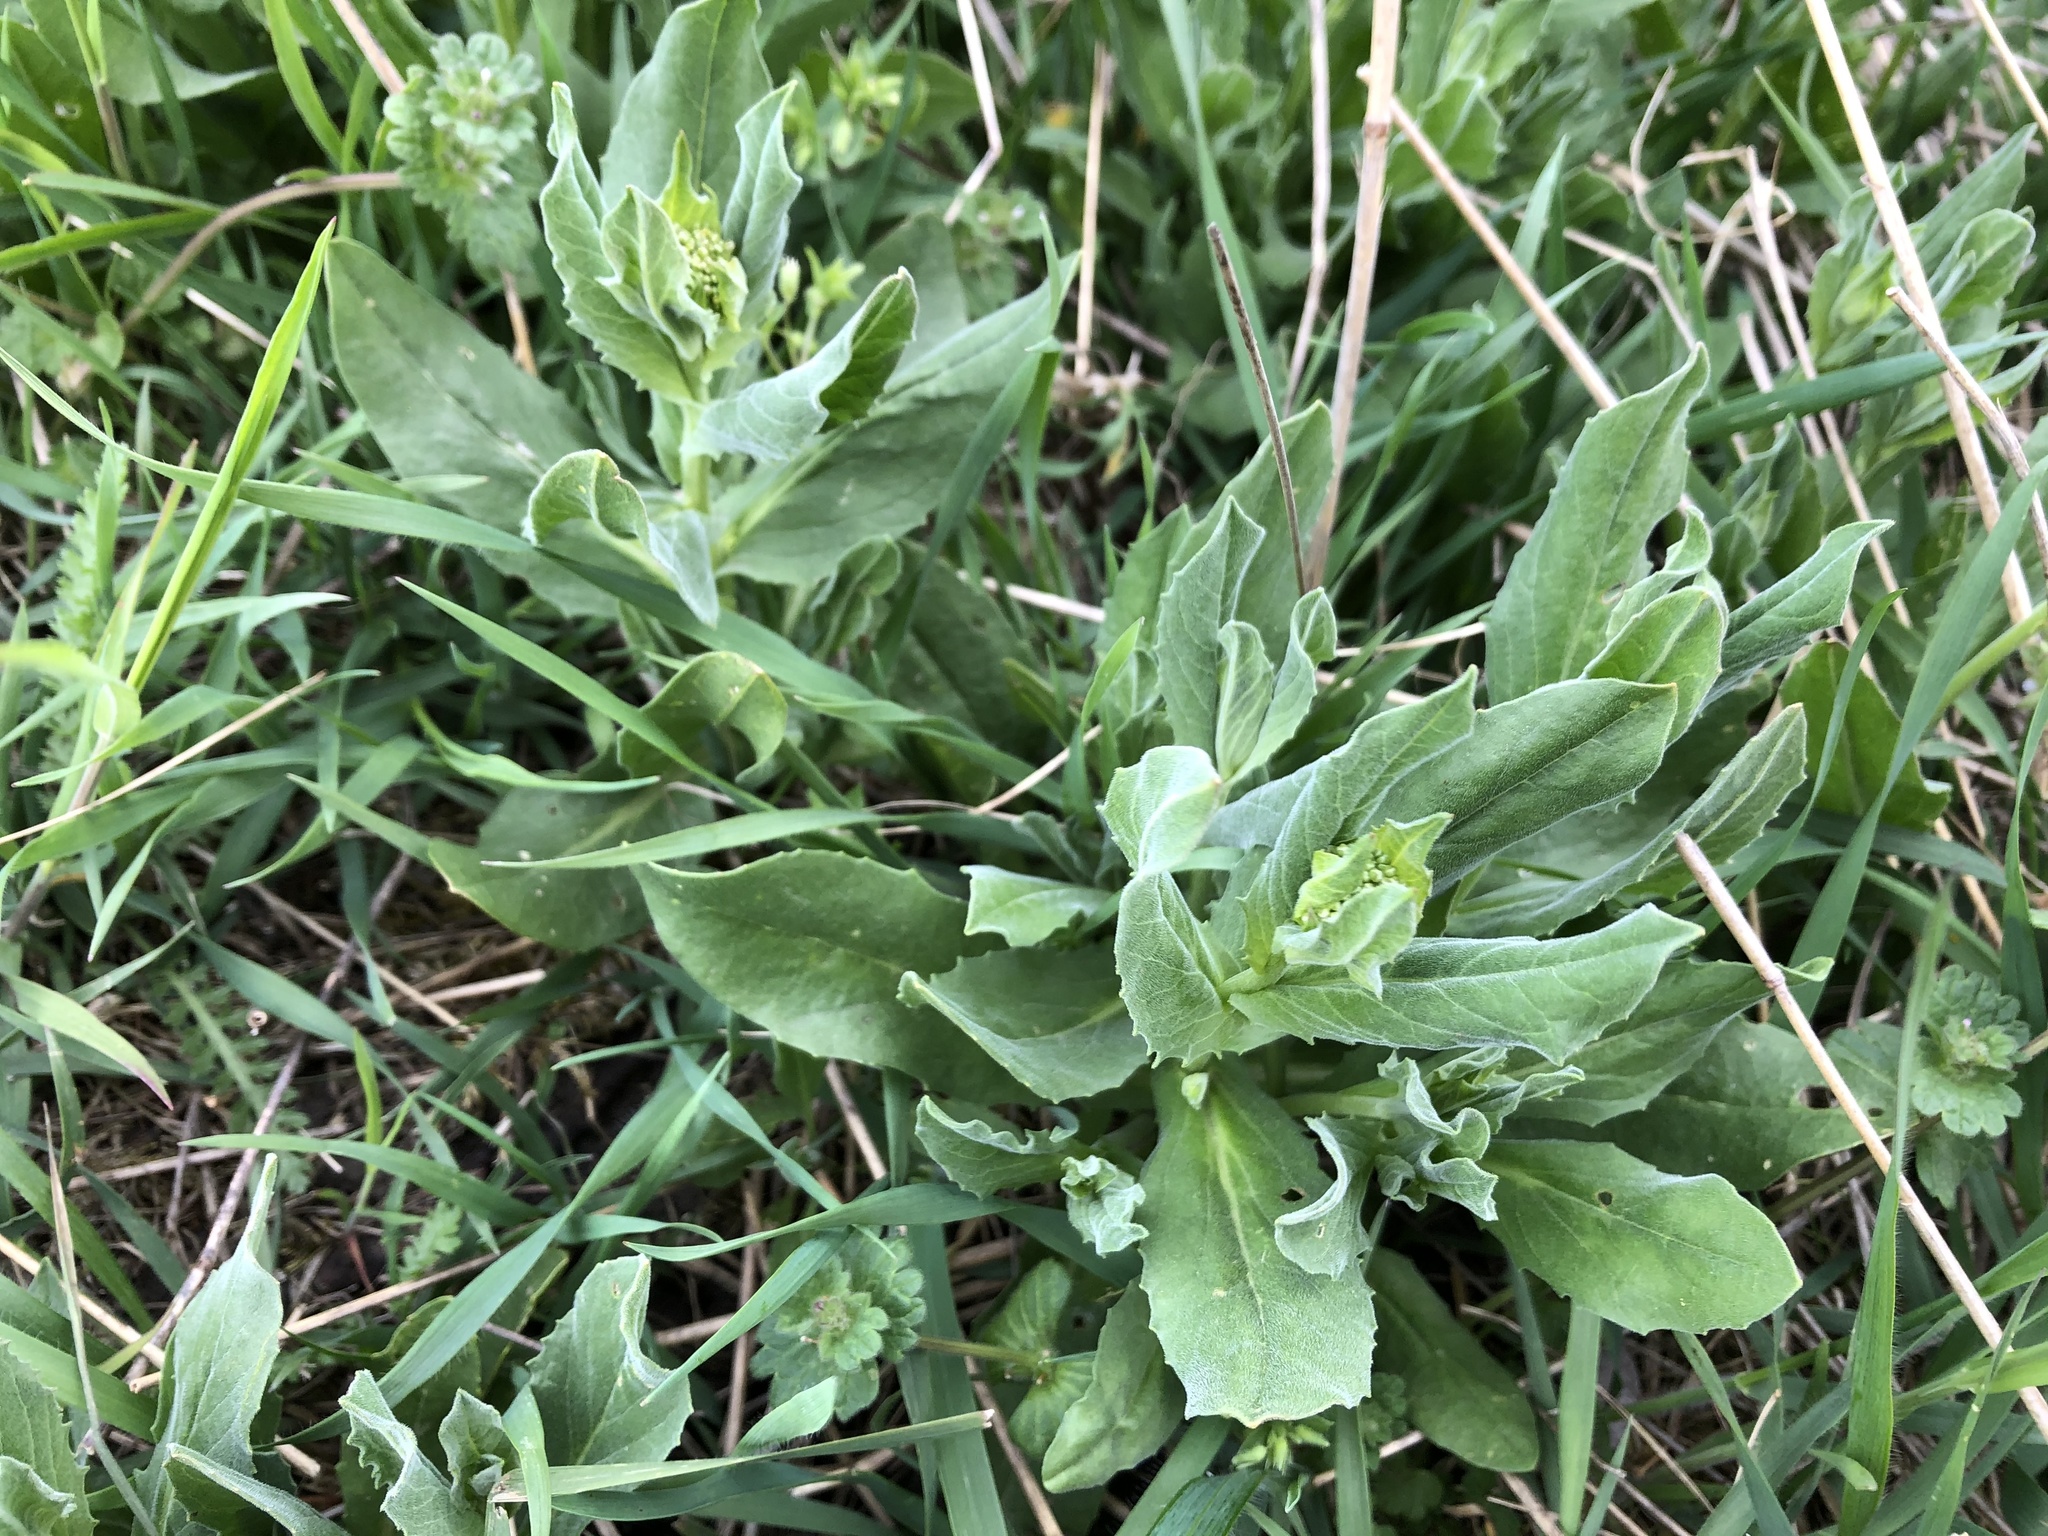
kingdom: Plantae
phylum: Tracheophyta
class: Magnoliopsida
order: Brassicales
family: Brassicaceae
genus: Lepidium
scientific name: Lepidium draba
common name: Hoary cress
